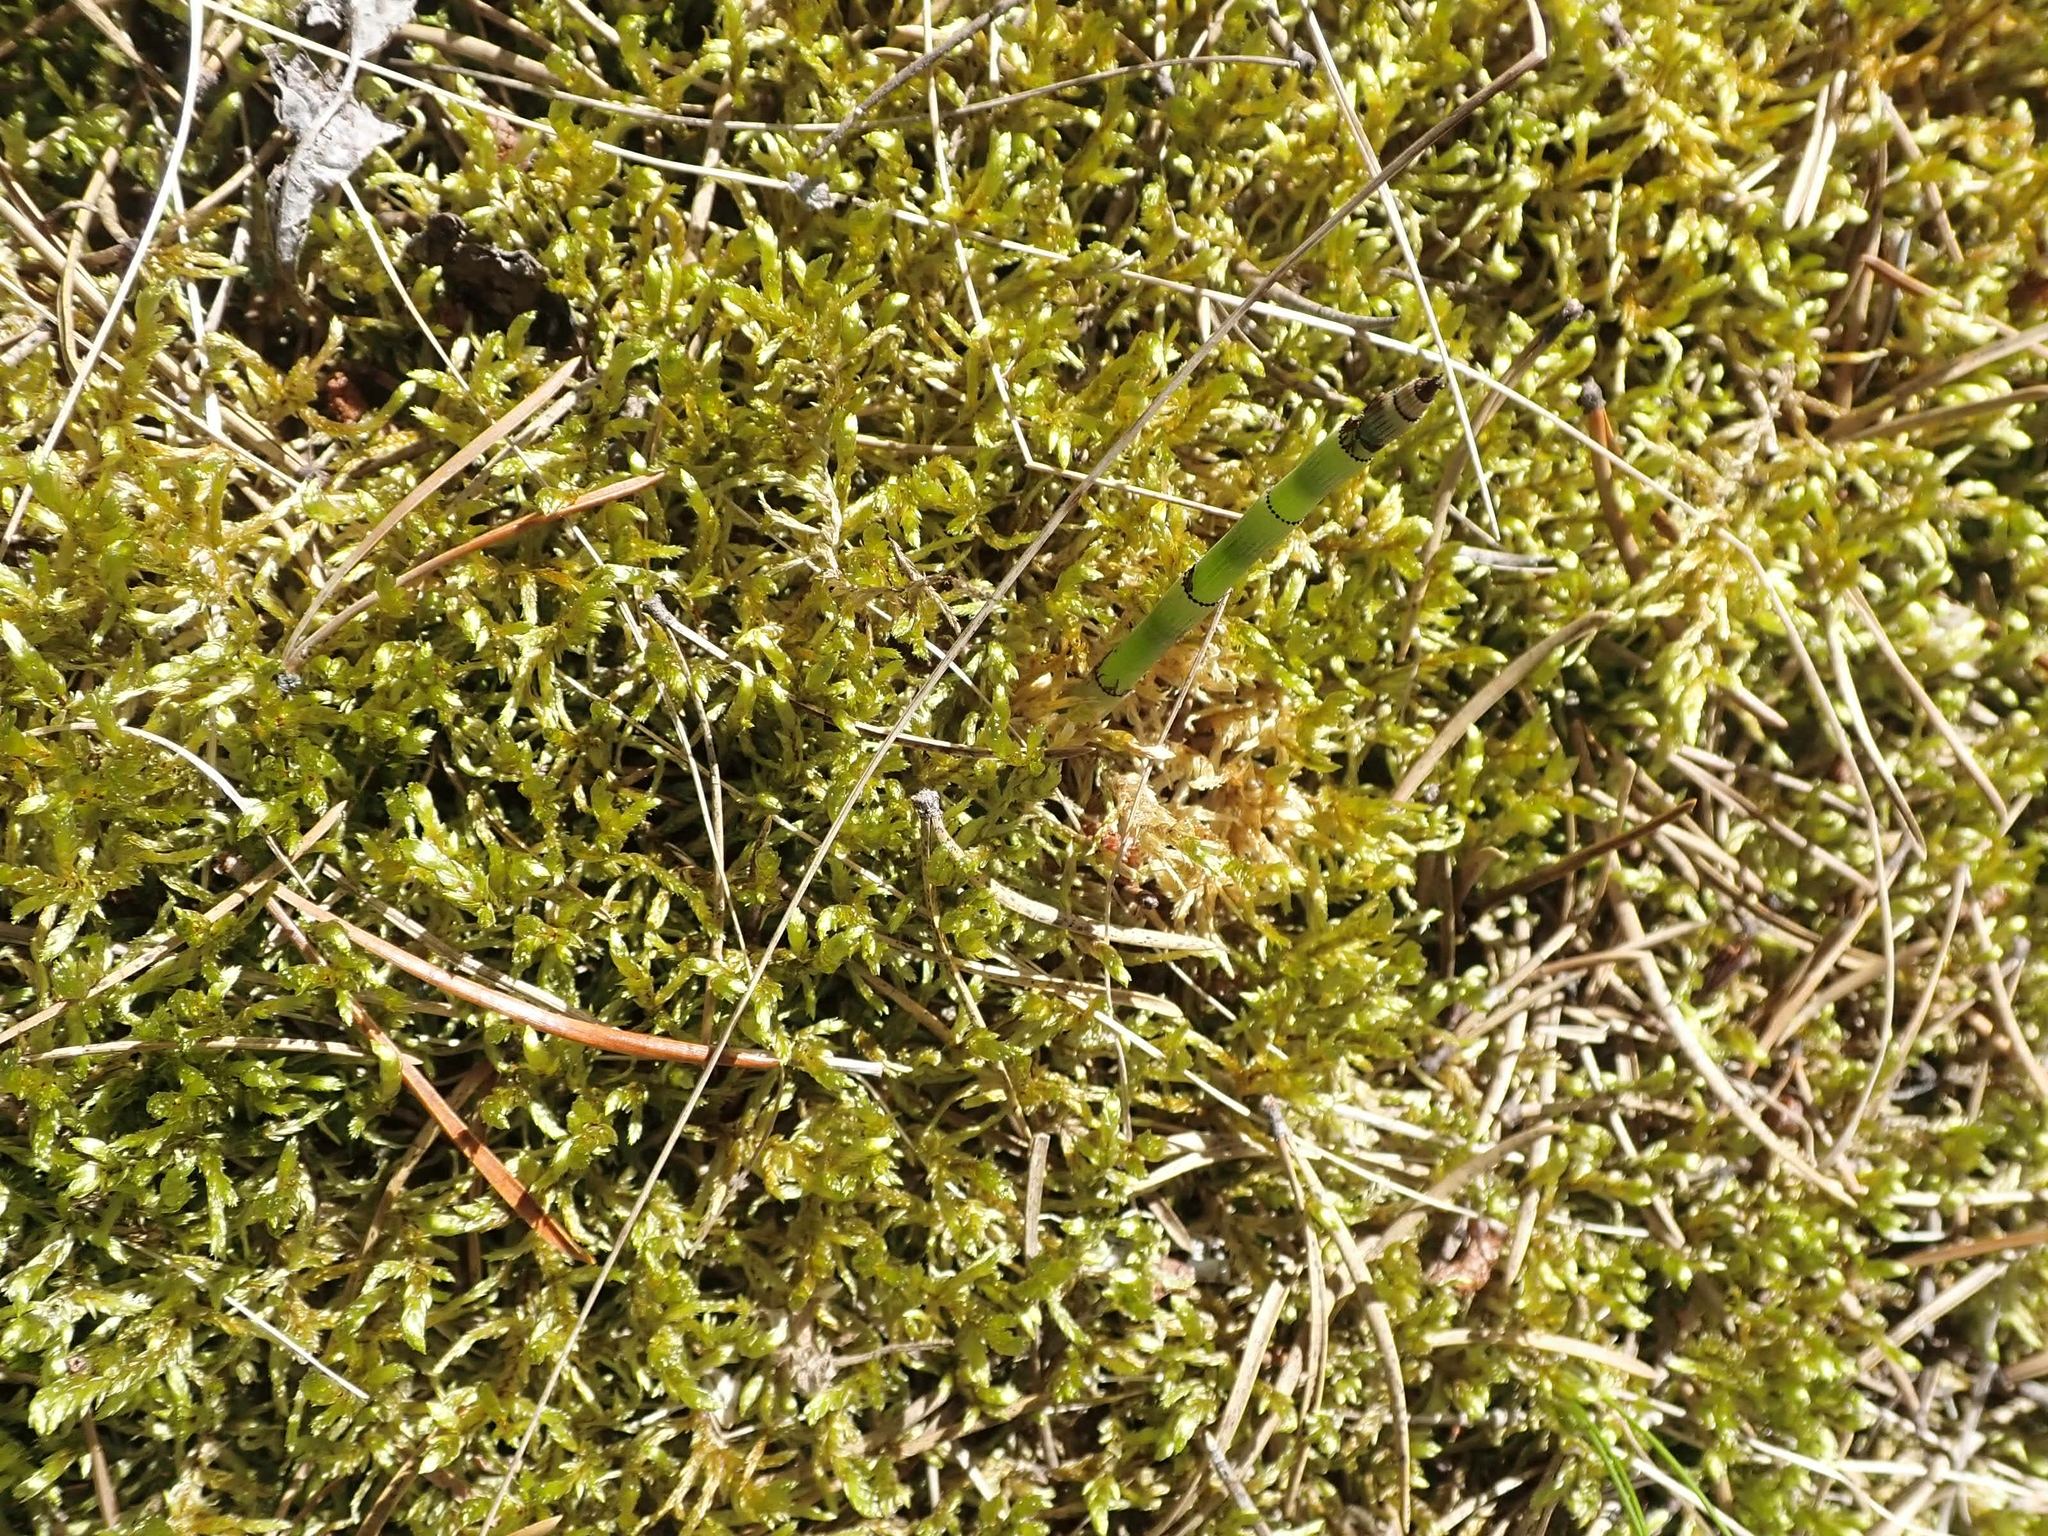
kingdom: Plantae
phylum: Bryophyta
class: Bryopsida
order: Hypnales
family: Hylocomiaceae
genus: Pleurozium
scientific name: Pleurozium schreberi
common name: Red-stemmed feather moss
